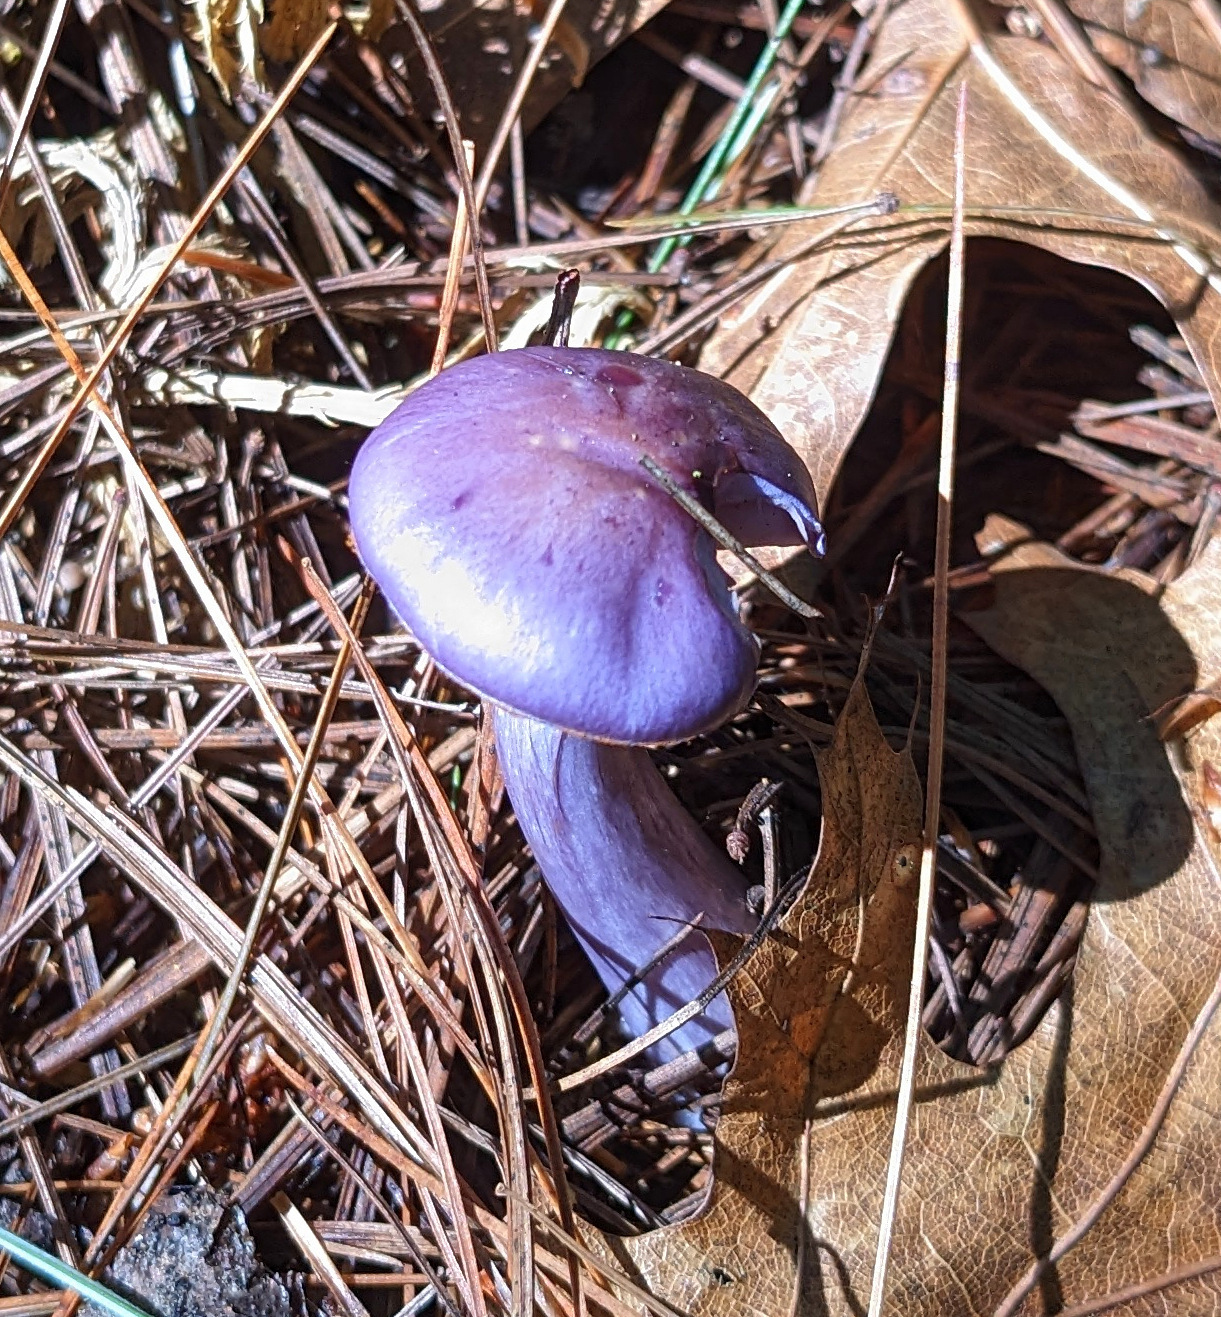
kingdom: Fungi
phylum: Basidiomycota
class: Agaricomycetes
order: Agaricales
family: Cortinariaceae
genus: Cortinarius
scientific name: Cortinarius iodes
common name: Viscid violet cort
